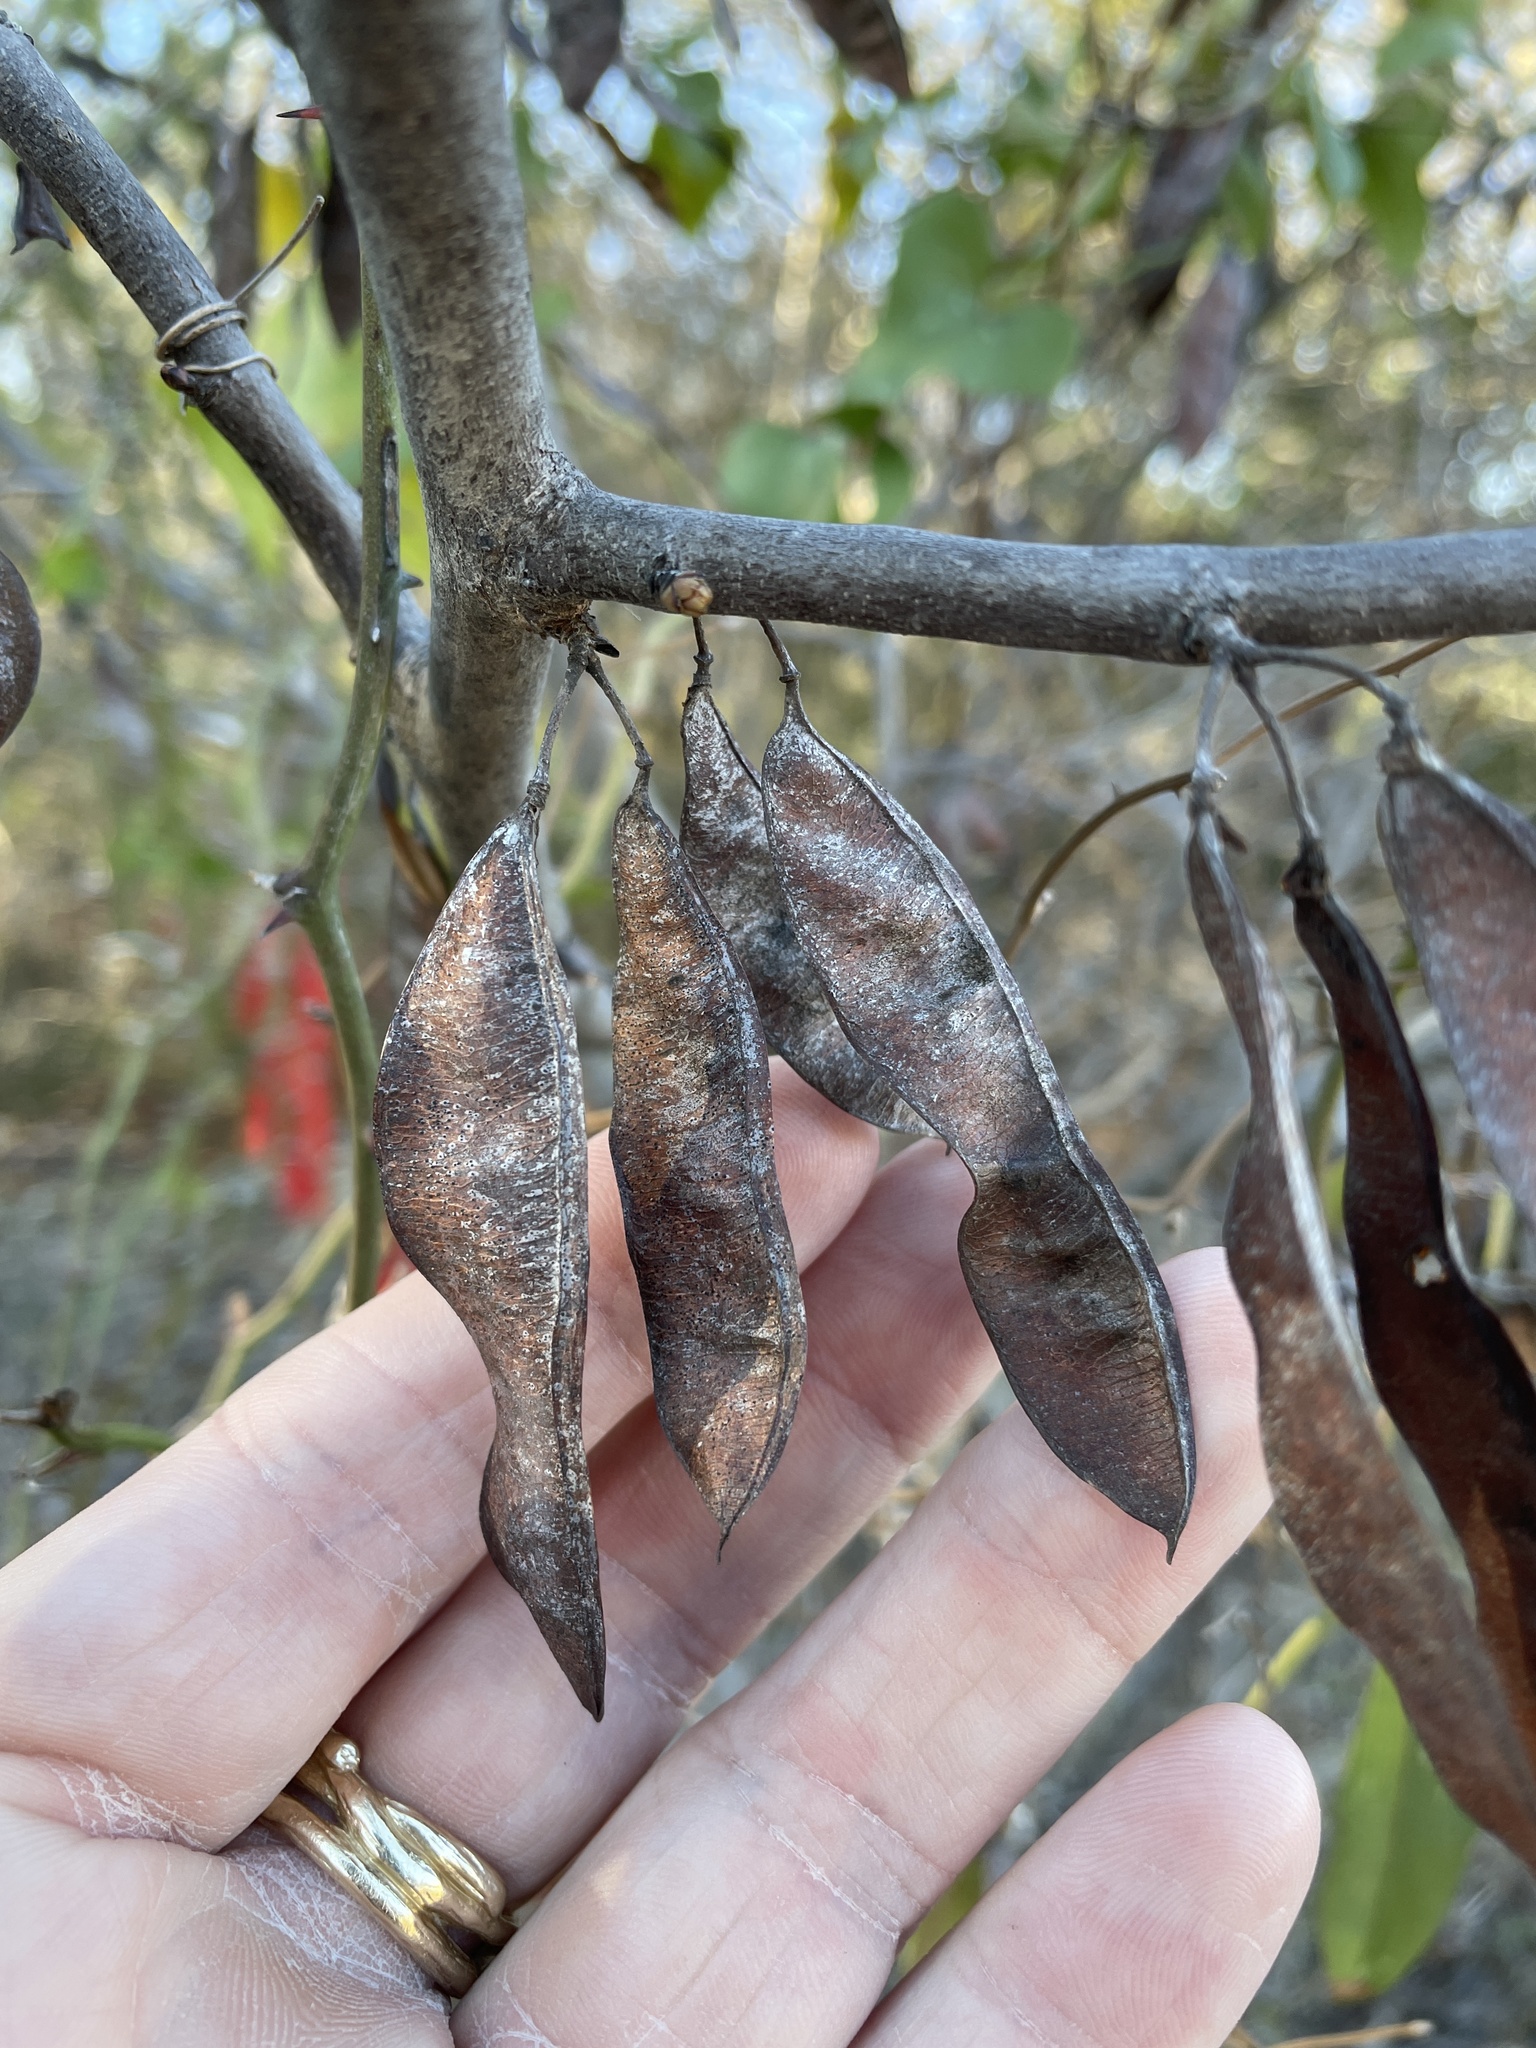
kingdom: Plantae
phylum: Tracheophyta
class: Magnoliopsida
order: Fabales
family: Fabaceae
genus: Cercis
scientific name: Cercis canadensis
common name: Eastern redbud
